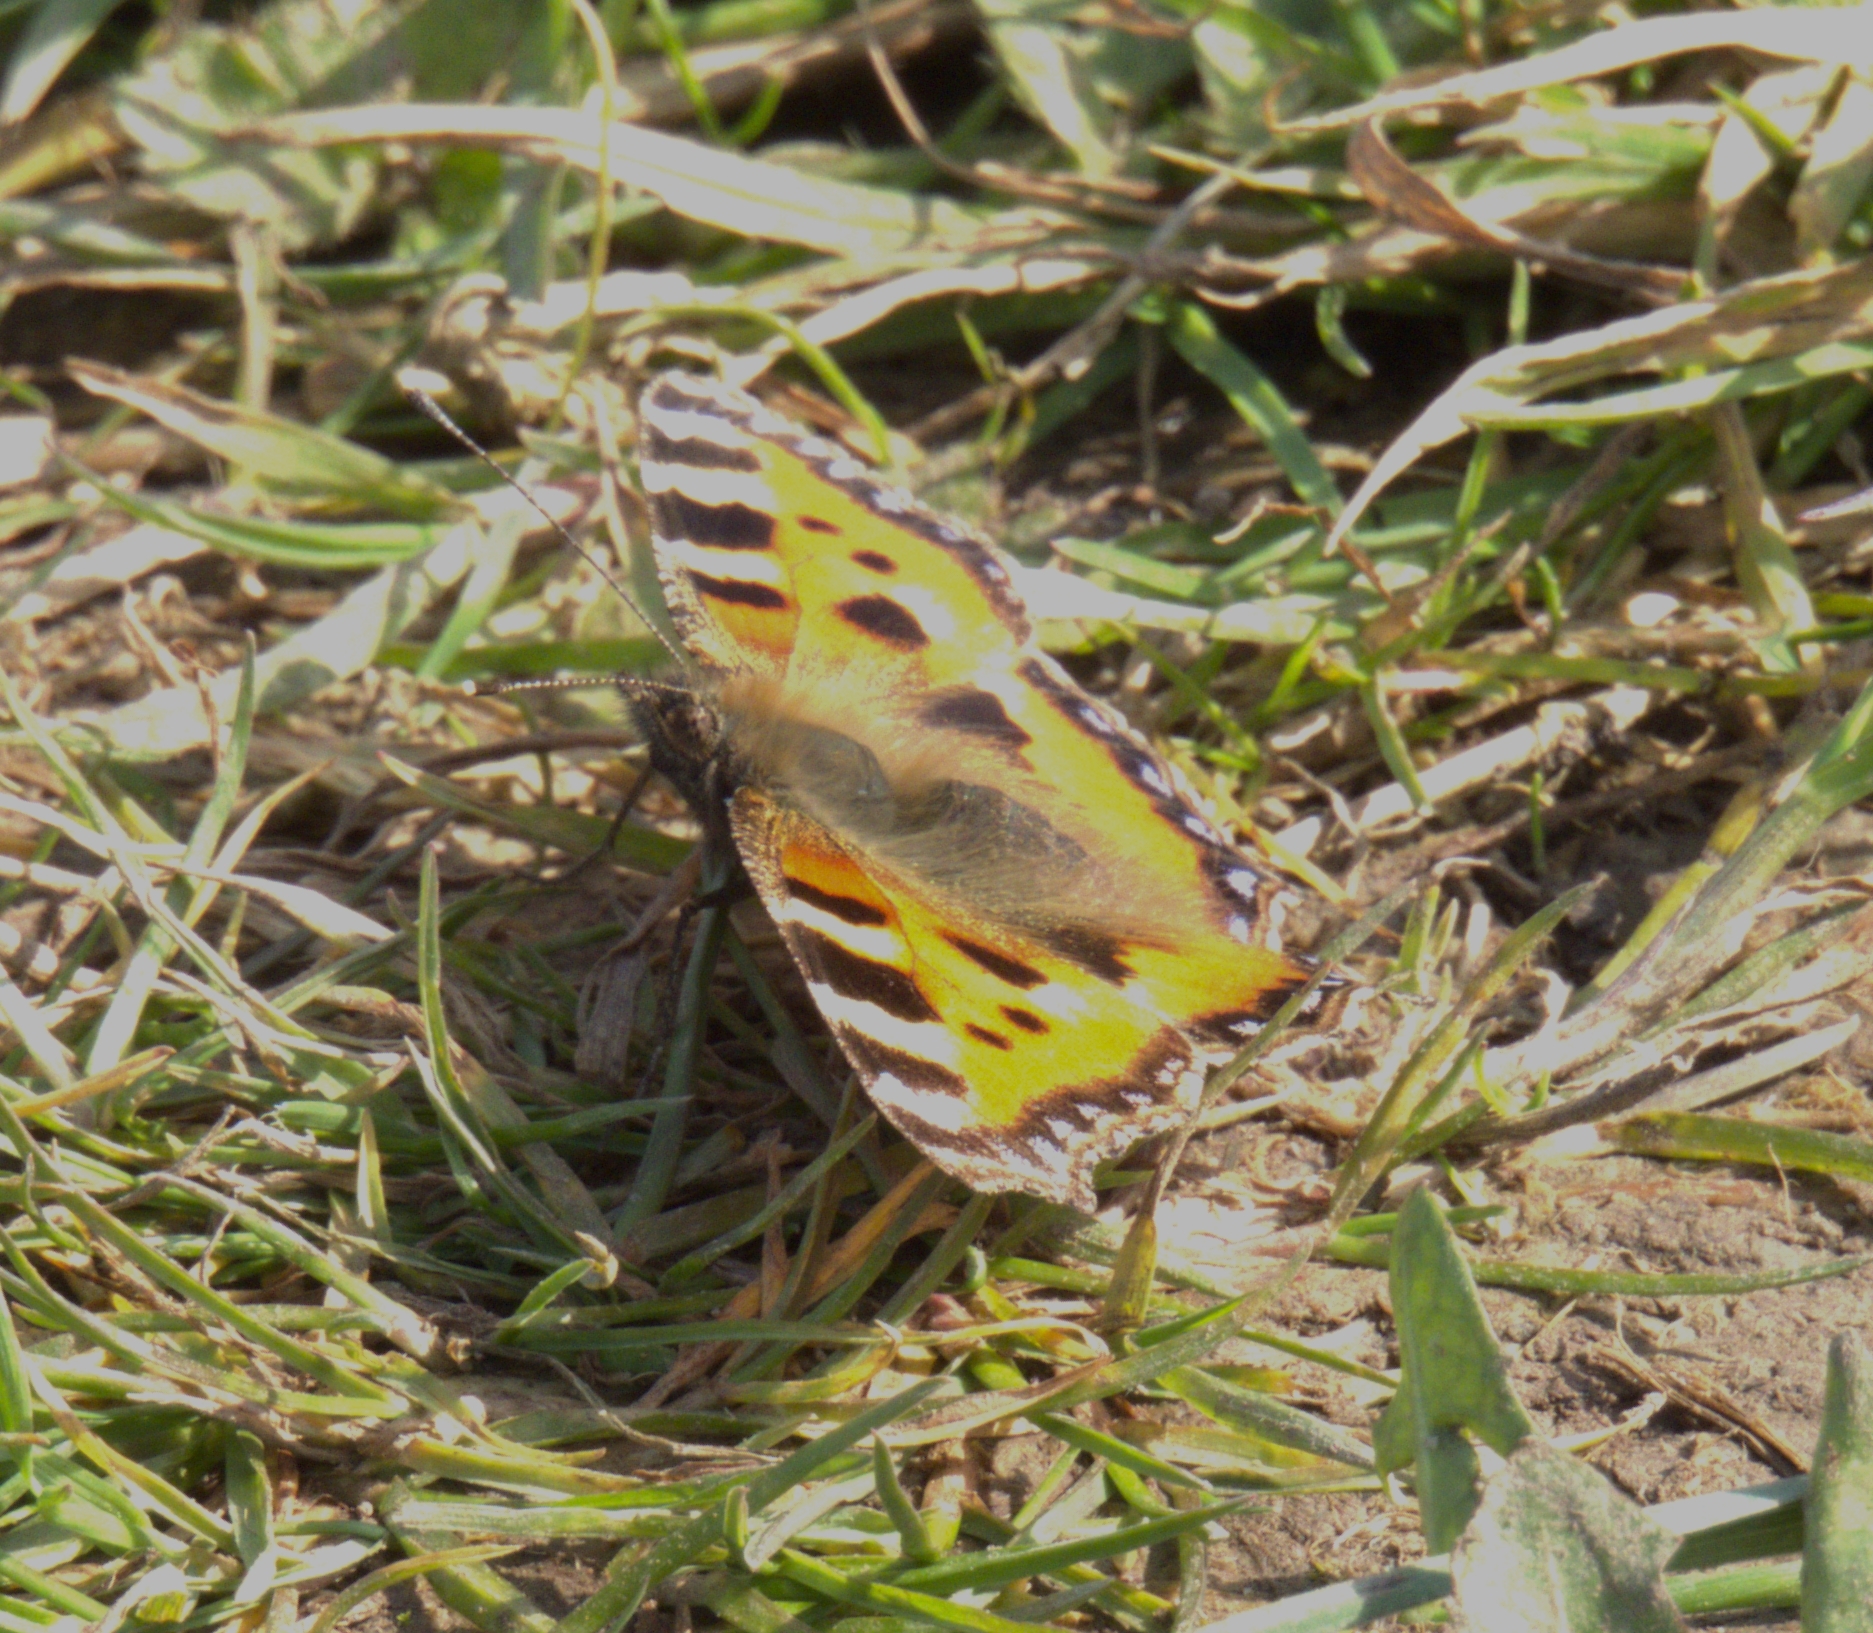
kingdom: Animalia
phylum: Arthropoda
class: Insecta
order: Lepidoptera
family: Nymphalidae
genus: Aglais
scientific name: Aglais urticae
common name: Small tortoiseshell
